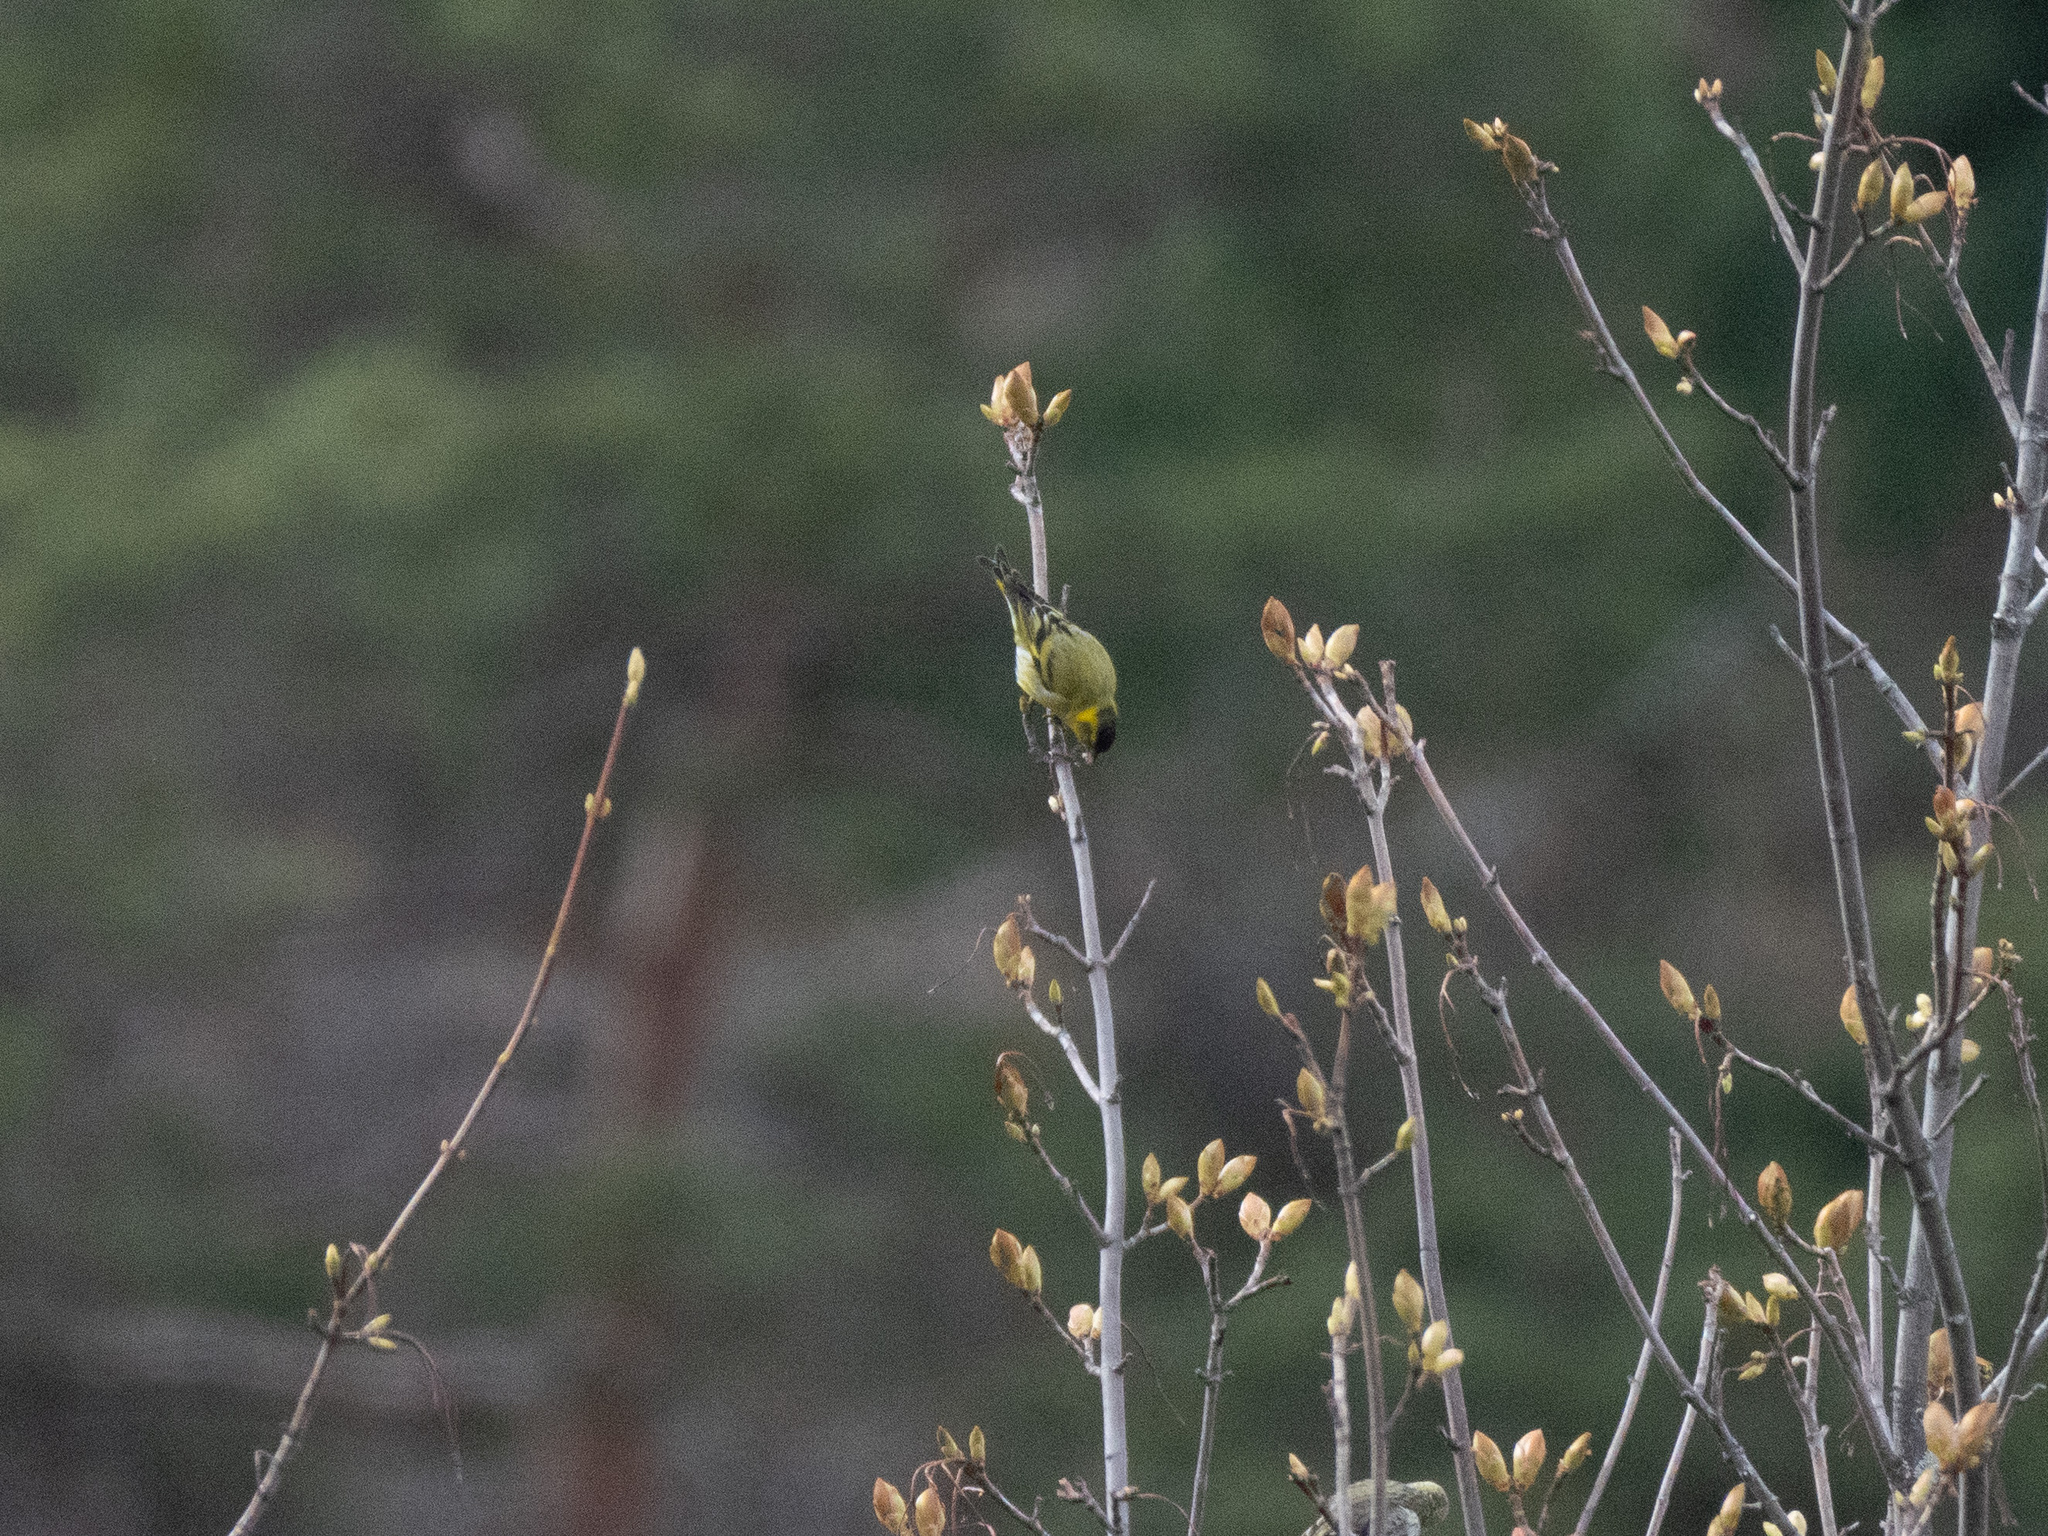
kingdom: Animalia
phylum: Chordata
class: Aves
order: Passeriformes
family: Fringillidae
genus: Spinus
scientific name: Spinus spinus
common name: Eurasian siskin
